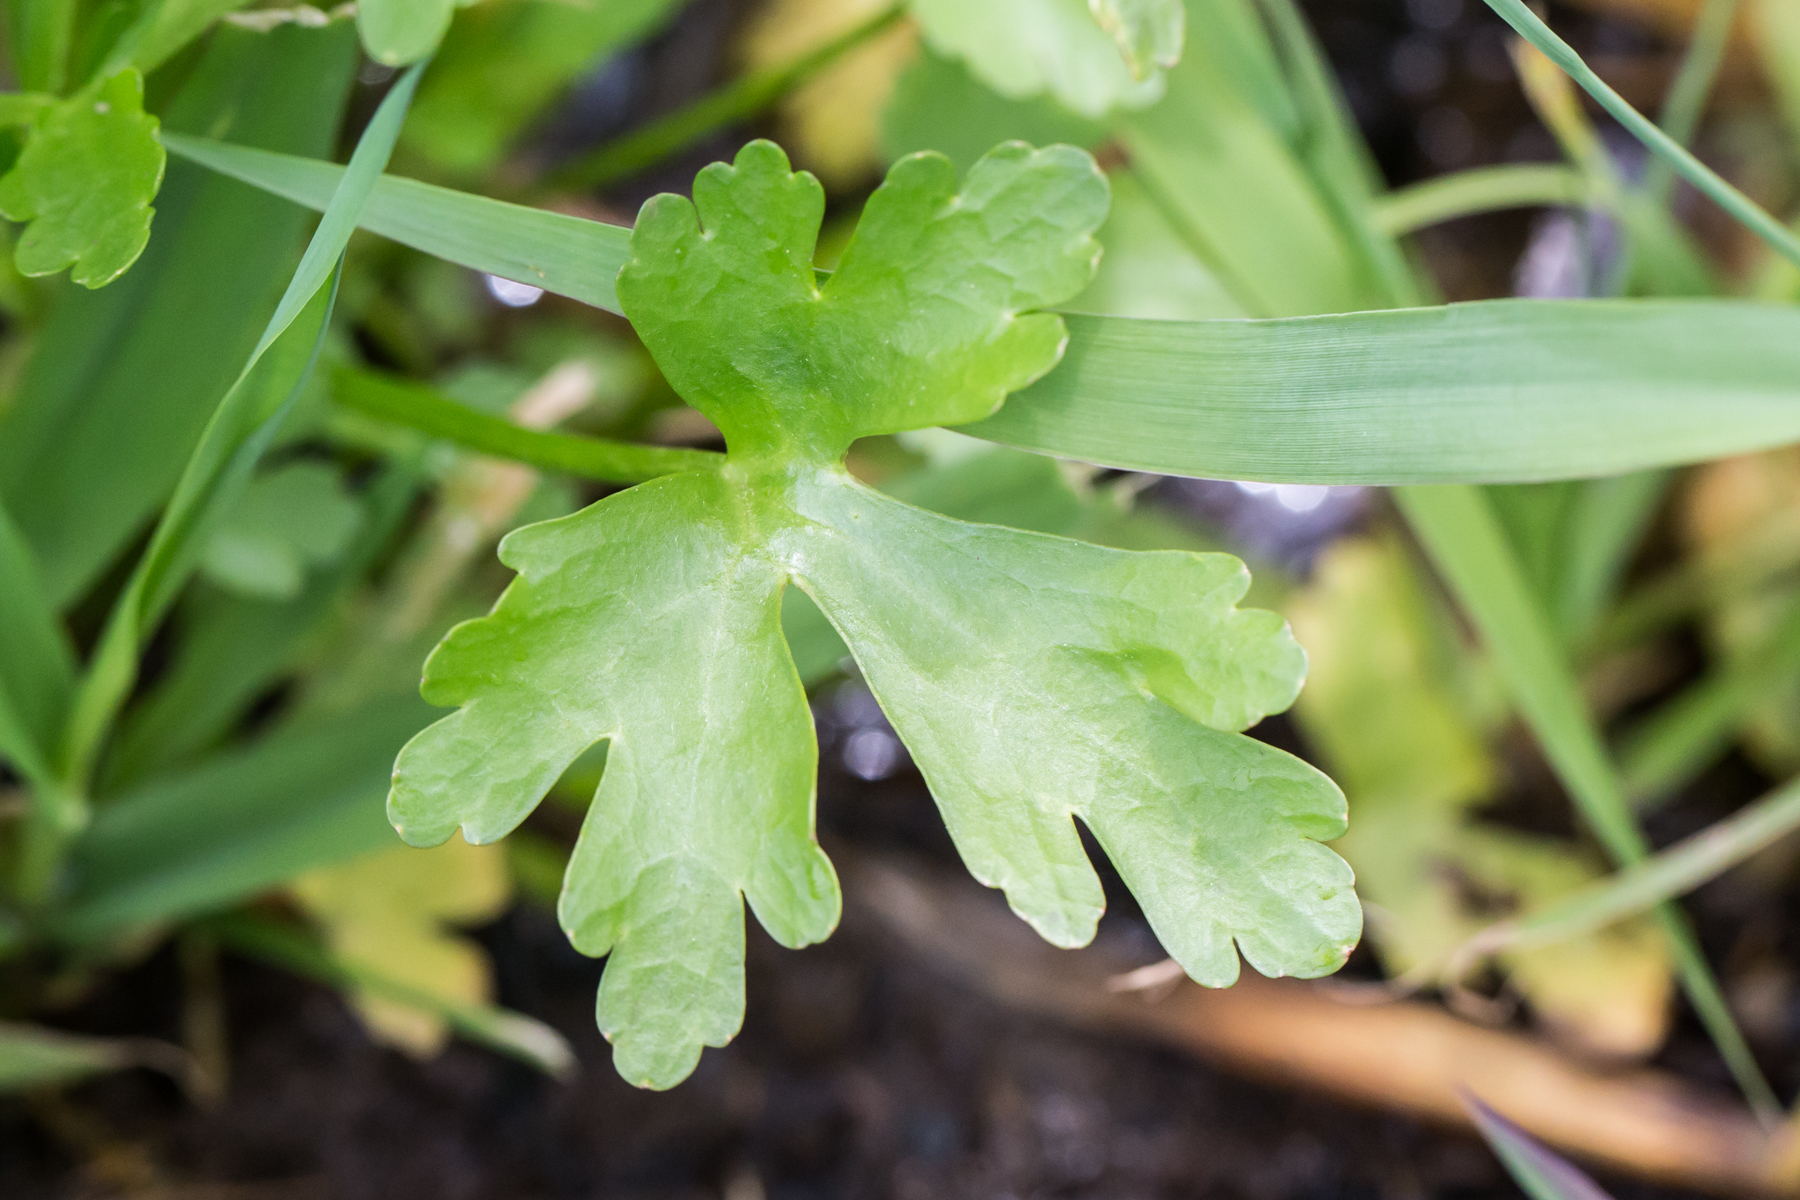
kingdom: Plantae
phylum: Tracheophyta
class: Magnoliopsida
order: Ranunculales
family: Ranunculaceae
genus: Ranunculus
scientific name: Ranunculus sceleratus
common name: Celery-leaved buttercup
